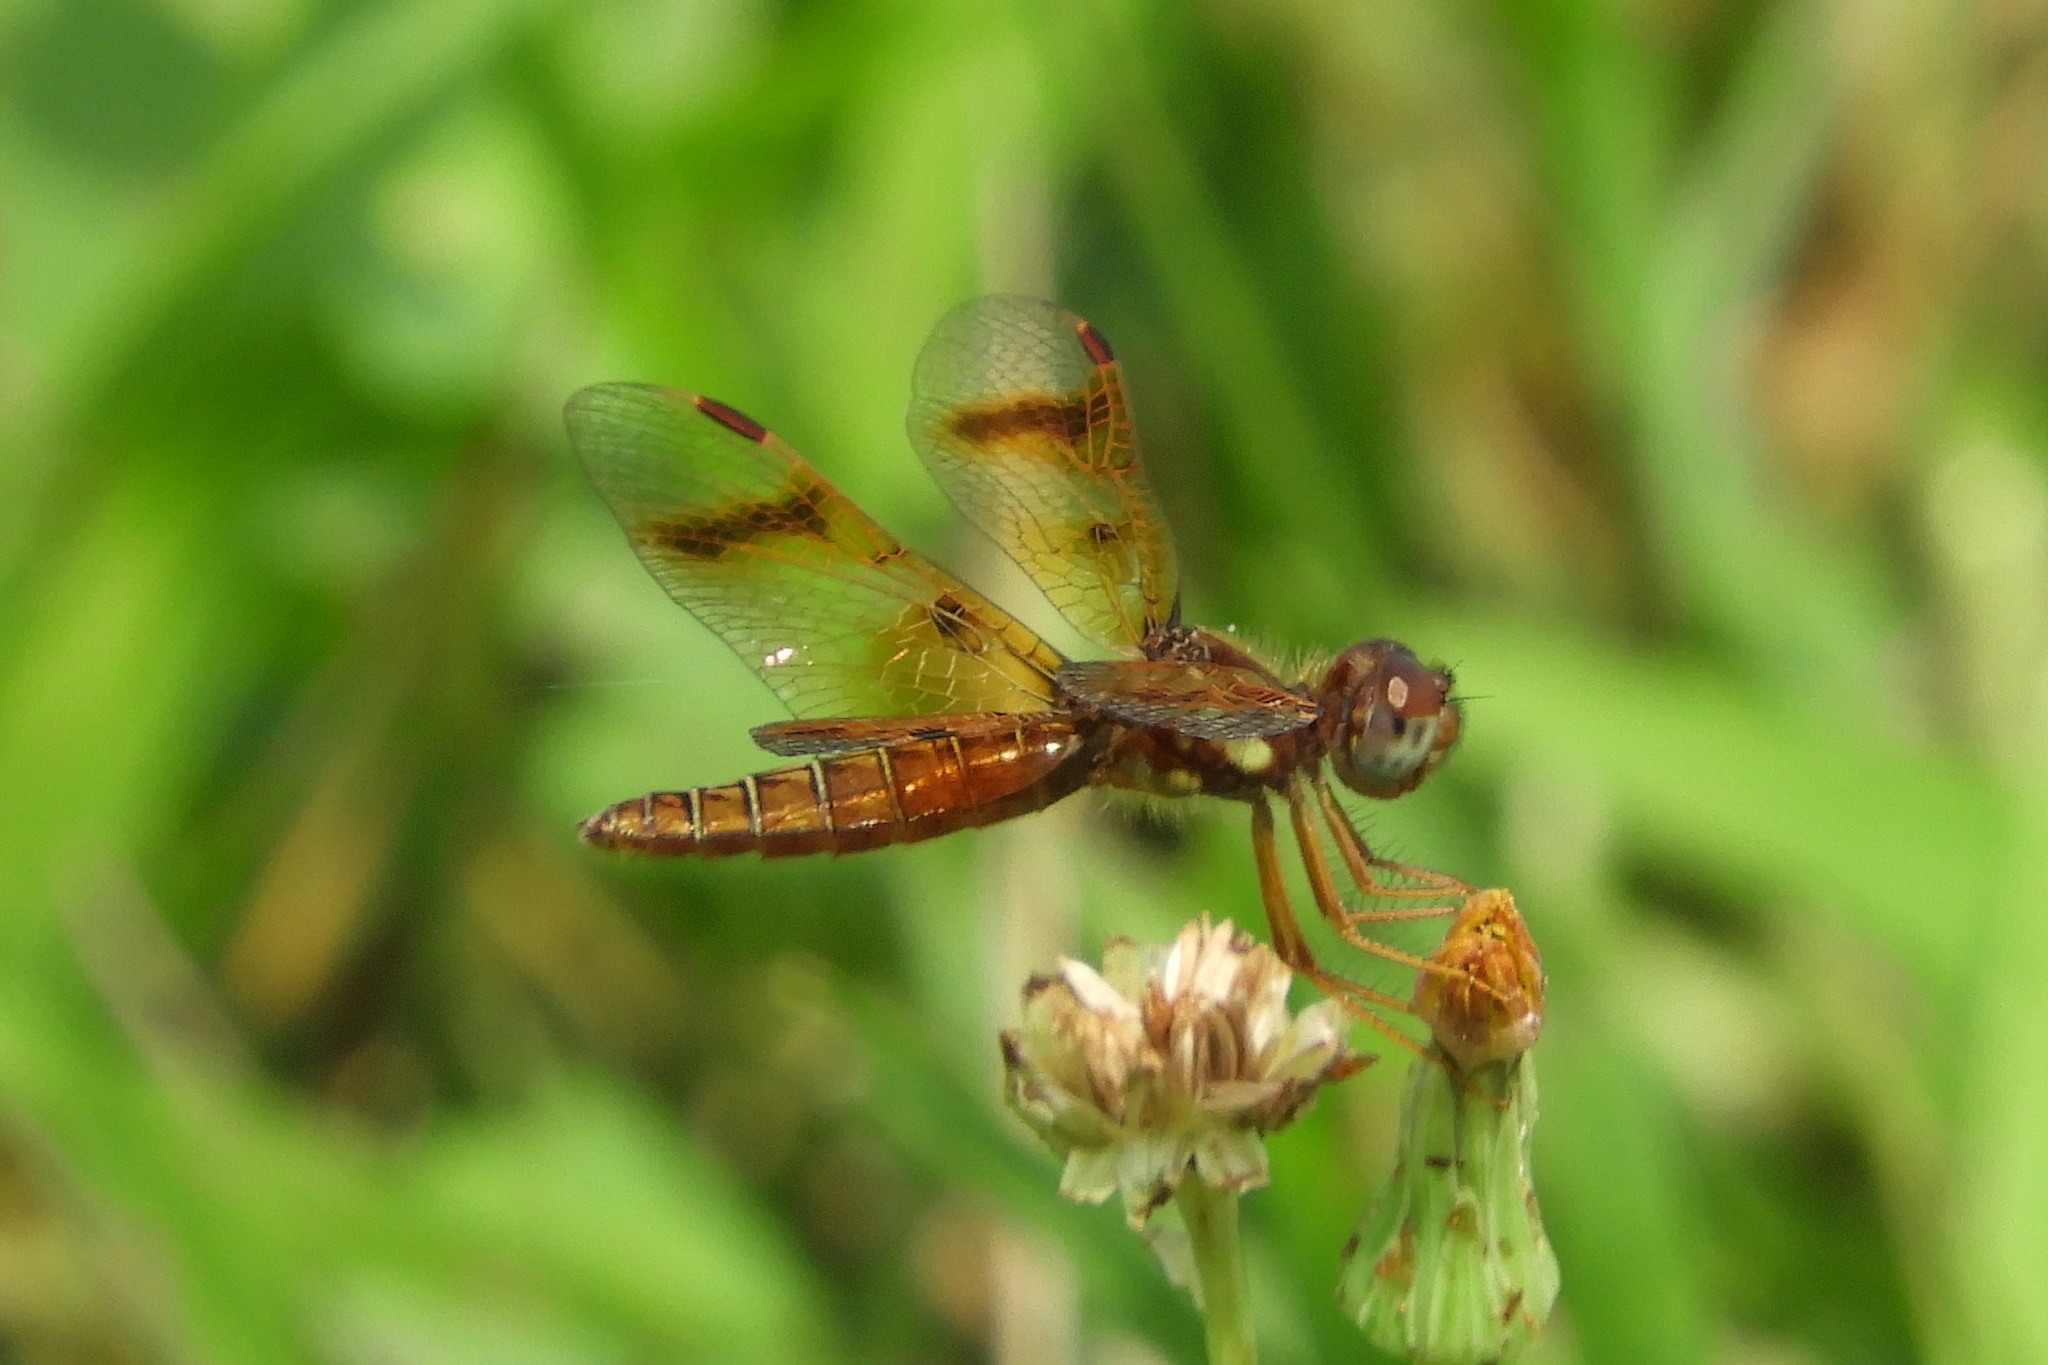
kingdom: Animalia
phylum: Arthropoda
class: Insecta
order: Odonata
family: Libellulidae
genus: Perithemis
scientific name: Perithemis tenera
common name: Eastern amberwing
